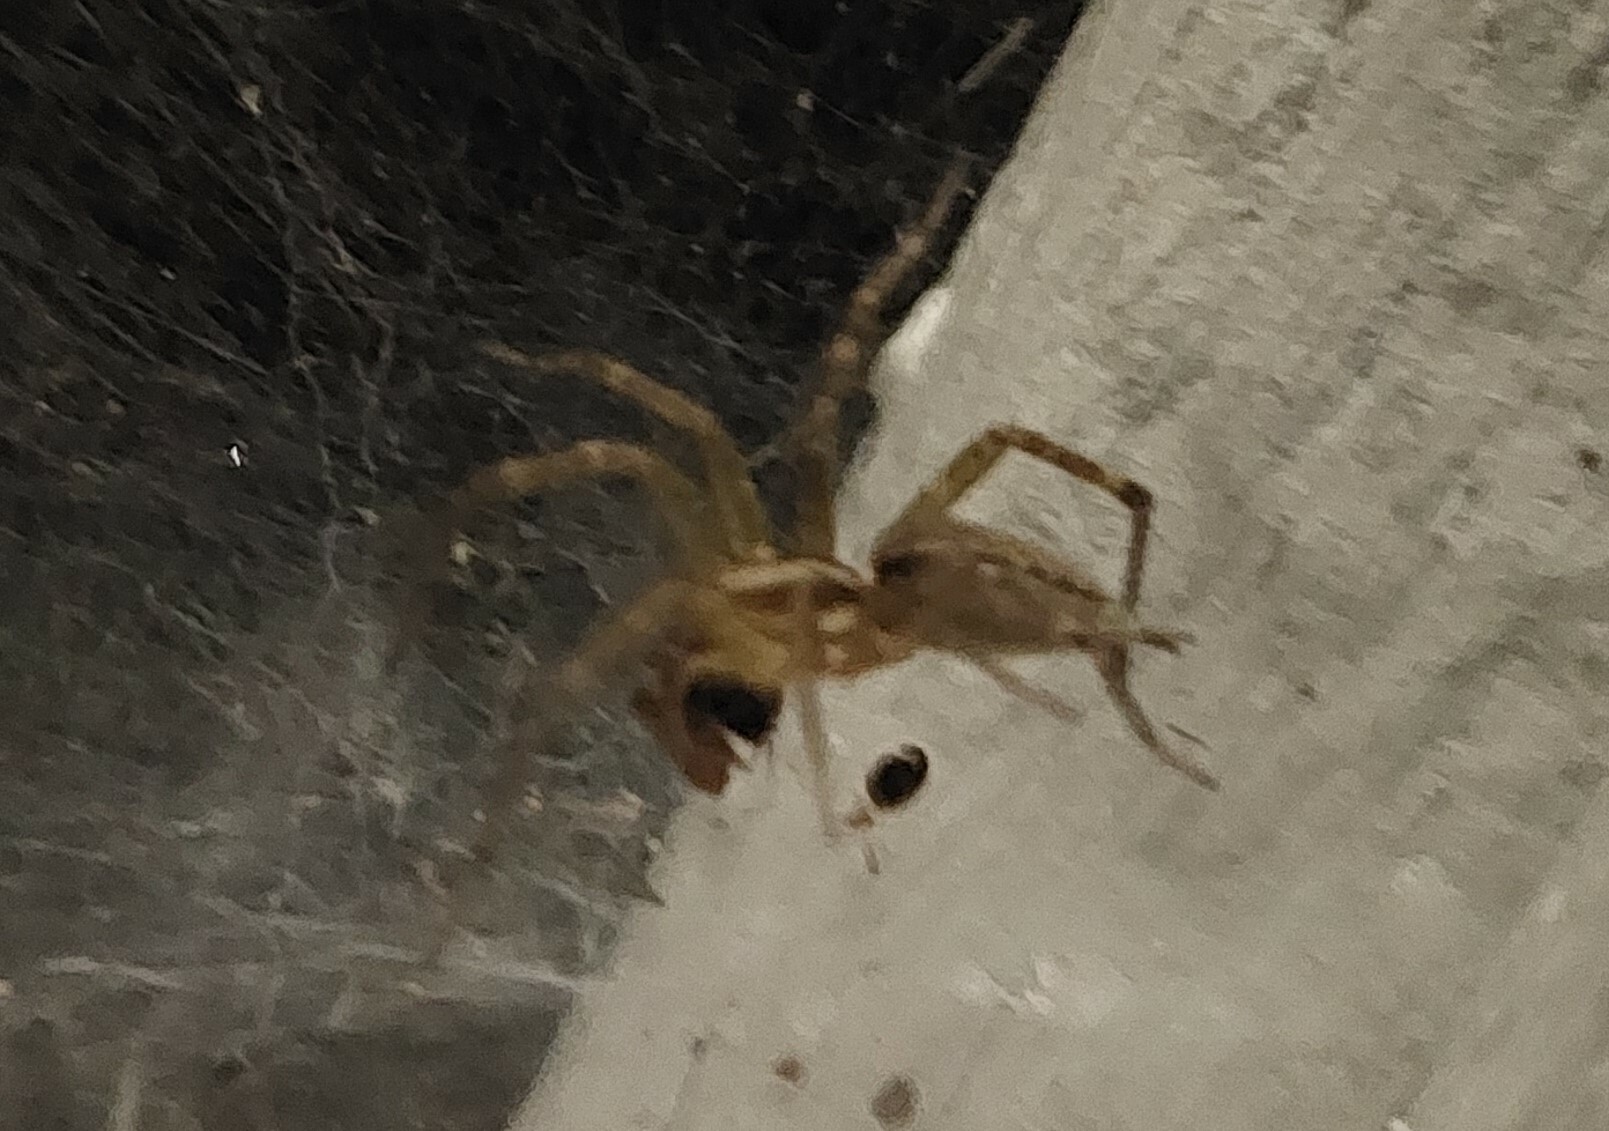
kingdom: Animalia
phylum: Arthropoda
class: Arachnida
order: Araneae
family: Agelenidae
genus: Agelenopsis
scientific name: Agelenopsis
